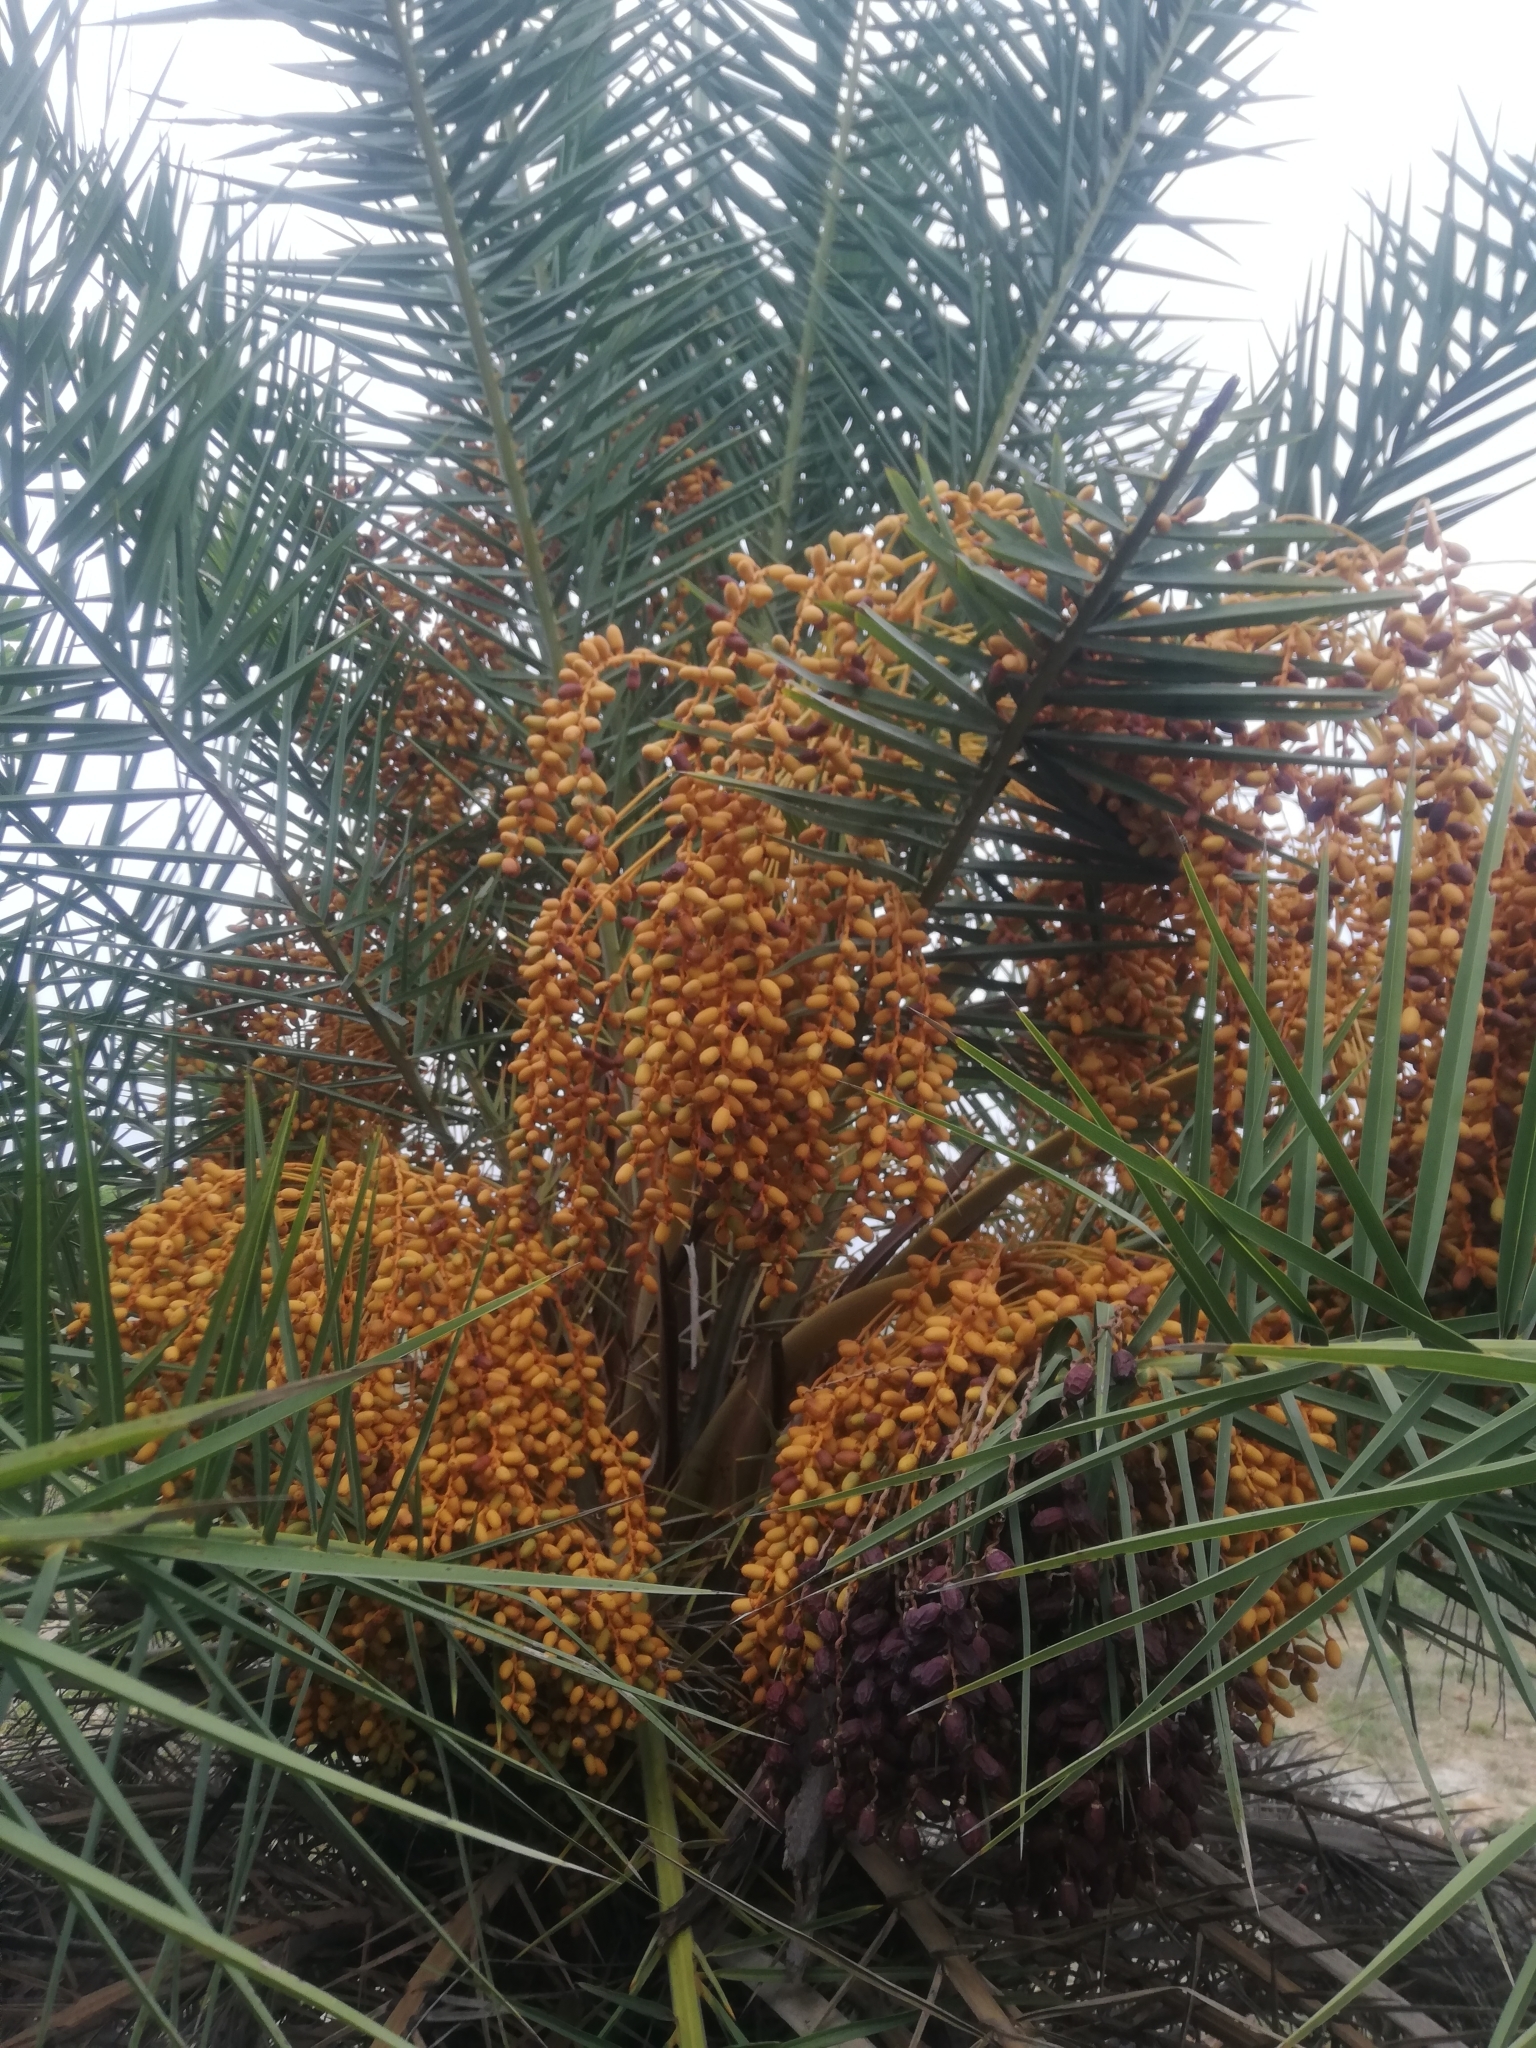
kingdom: Plantae
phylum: Tracheophyta
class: Liliopsida
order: Arecales
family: Arecaceae
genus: Phoenix
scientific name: Phoenix sylvestris
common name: Wild date palm
